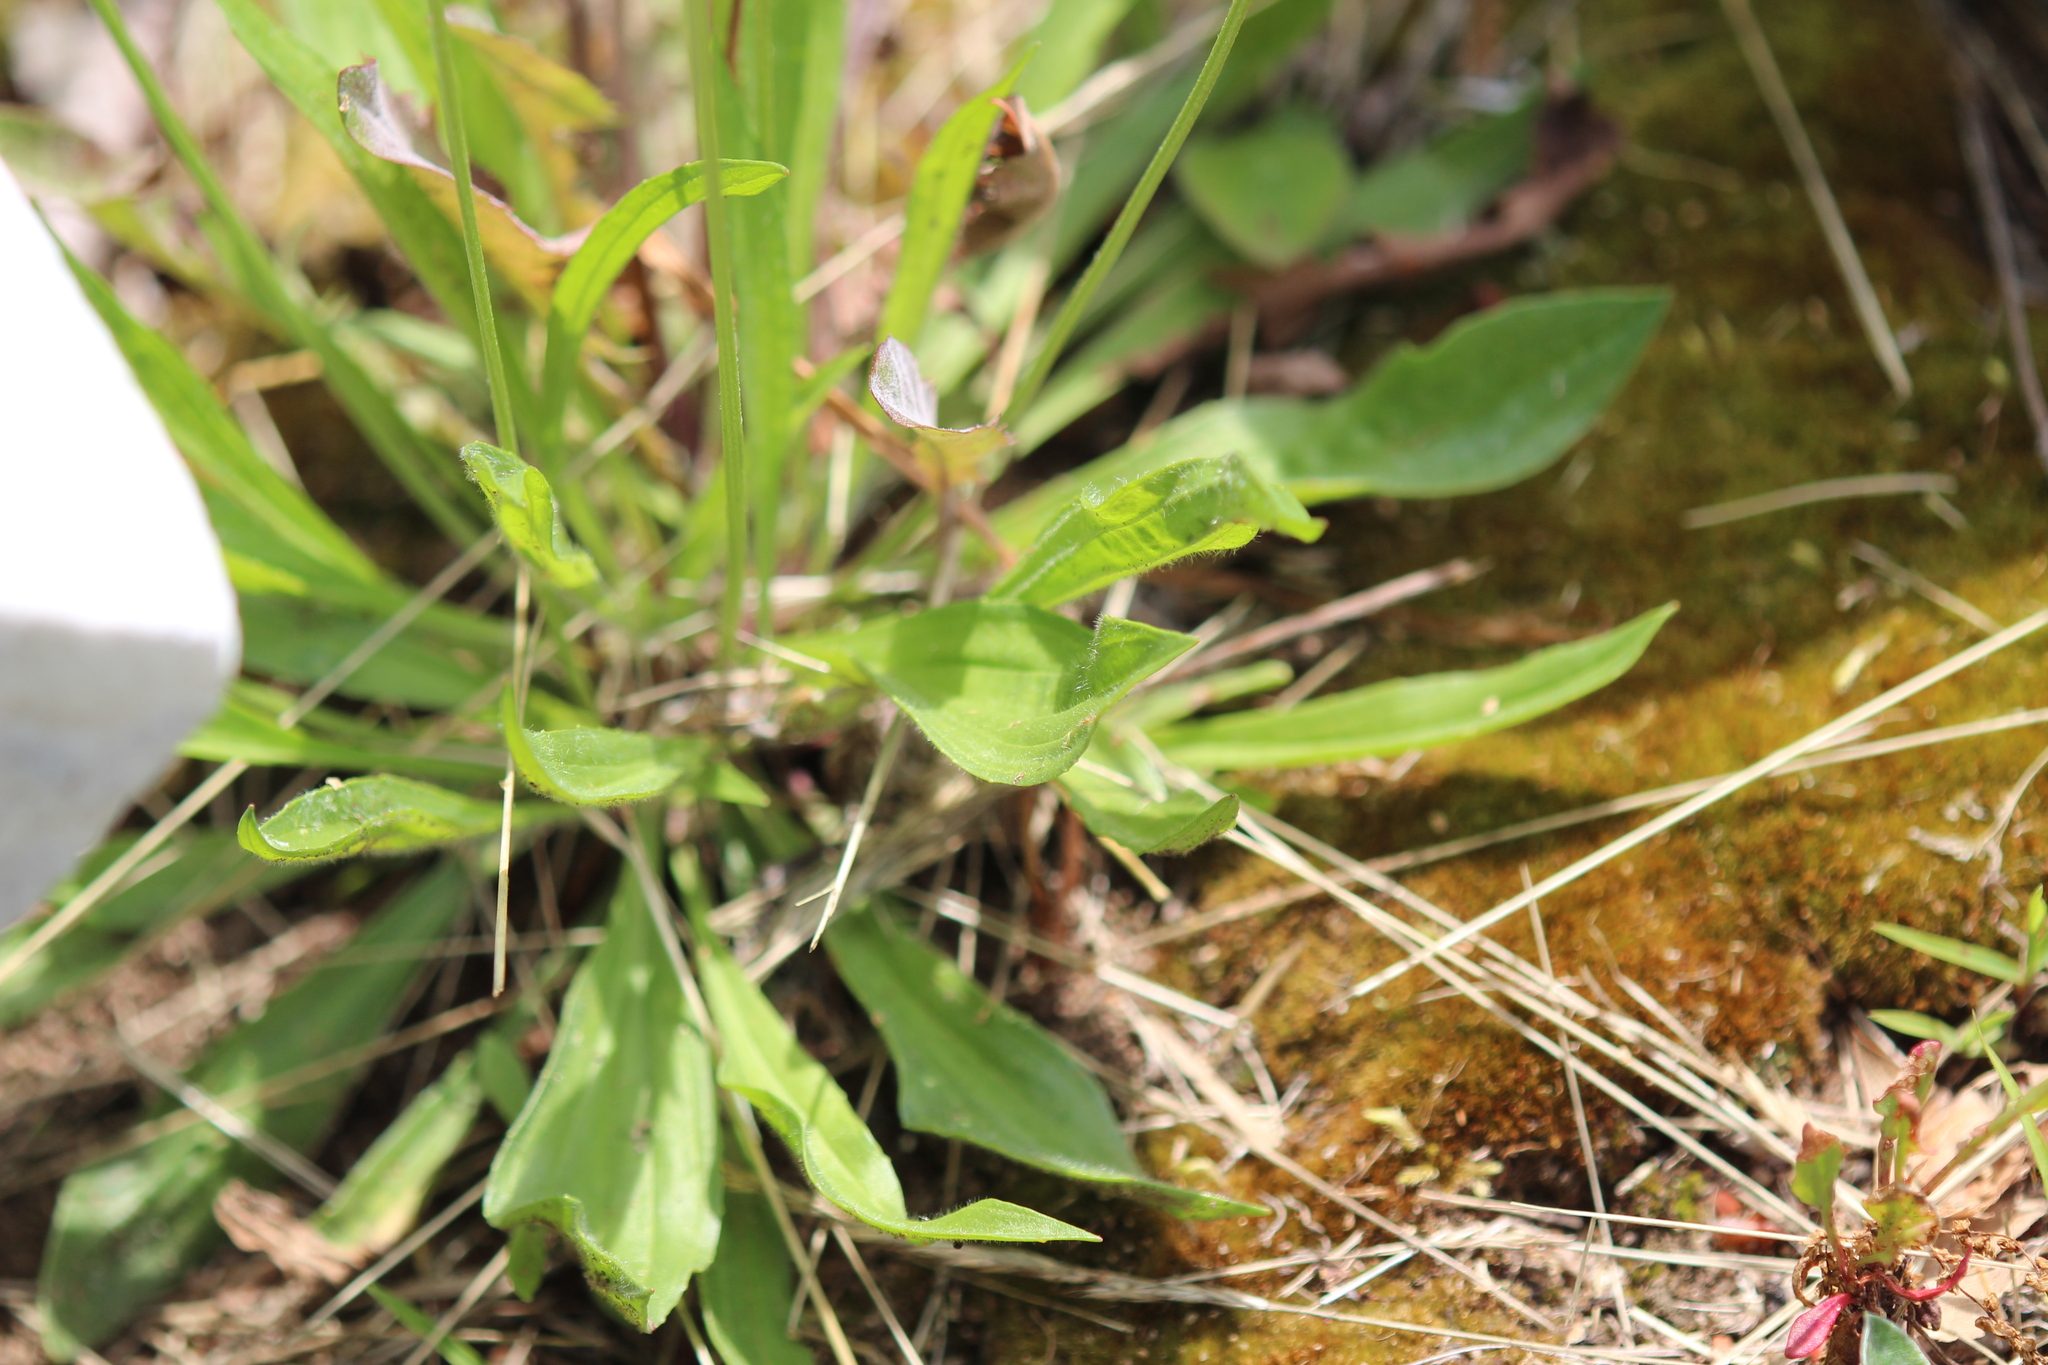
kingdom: Plantae
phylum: Tracheophyta
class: Magnoliopsida
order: Lamiales
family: Plantaginaceae
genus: Plantago
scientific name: Plantago lanceolata
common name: Ribwort plantain
